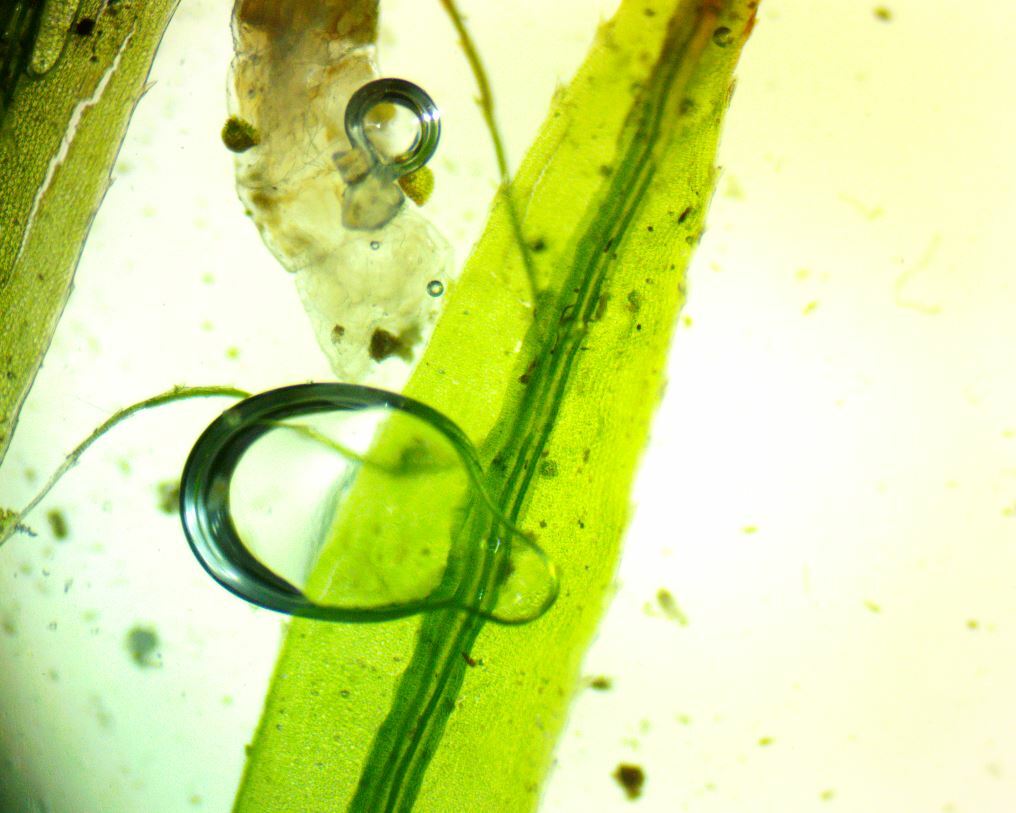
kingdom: Plantae
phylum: Bryophyta
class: Polytrichopsida
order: Polytrichales
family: Polytrichaceae
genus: Atrichum
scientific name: Atrichum altecristatum
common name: Ridged smoothcap moss
